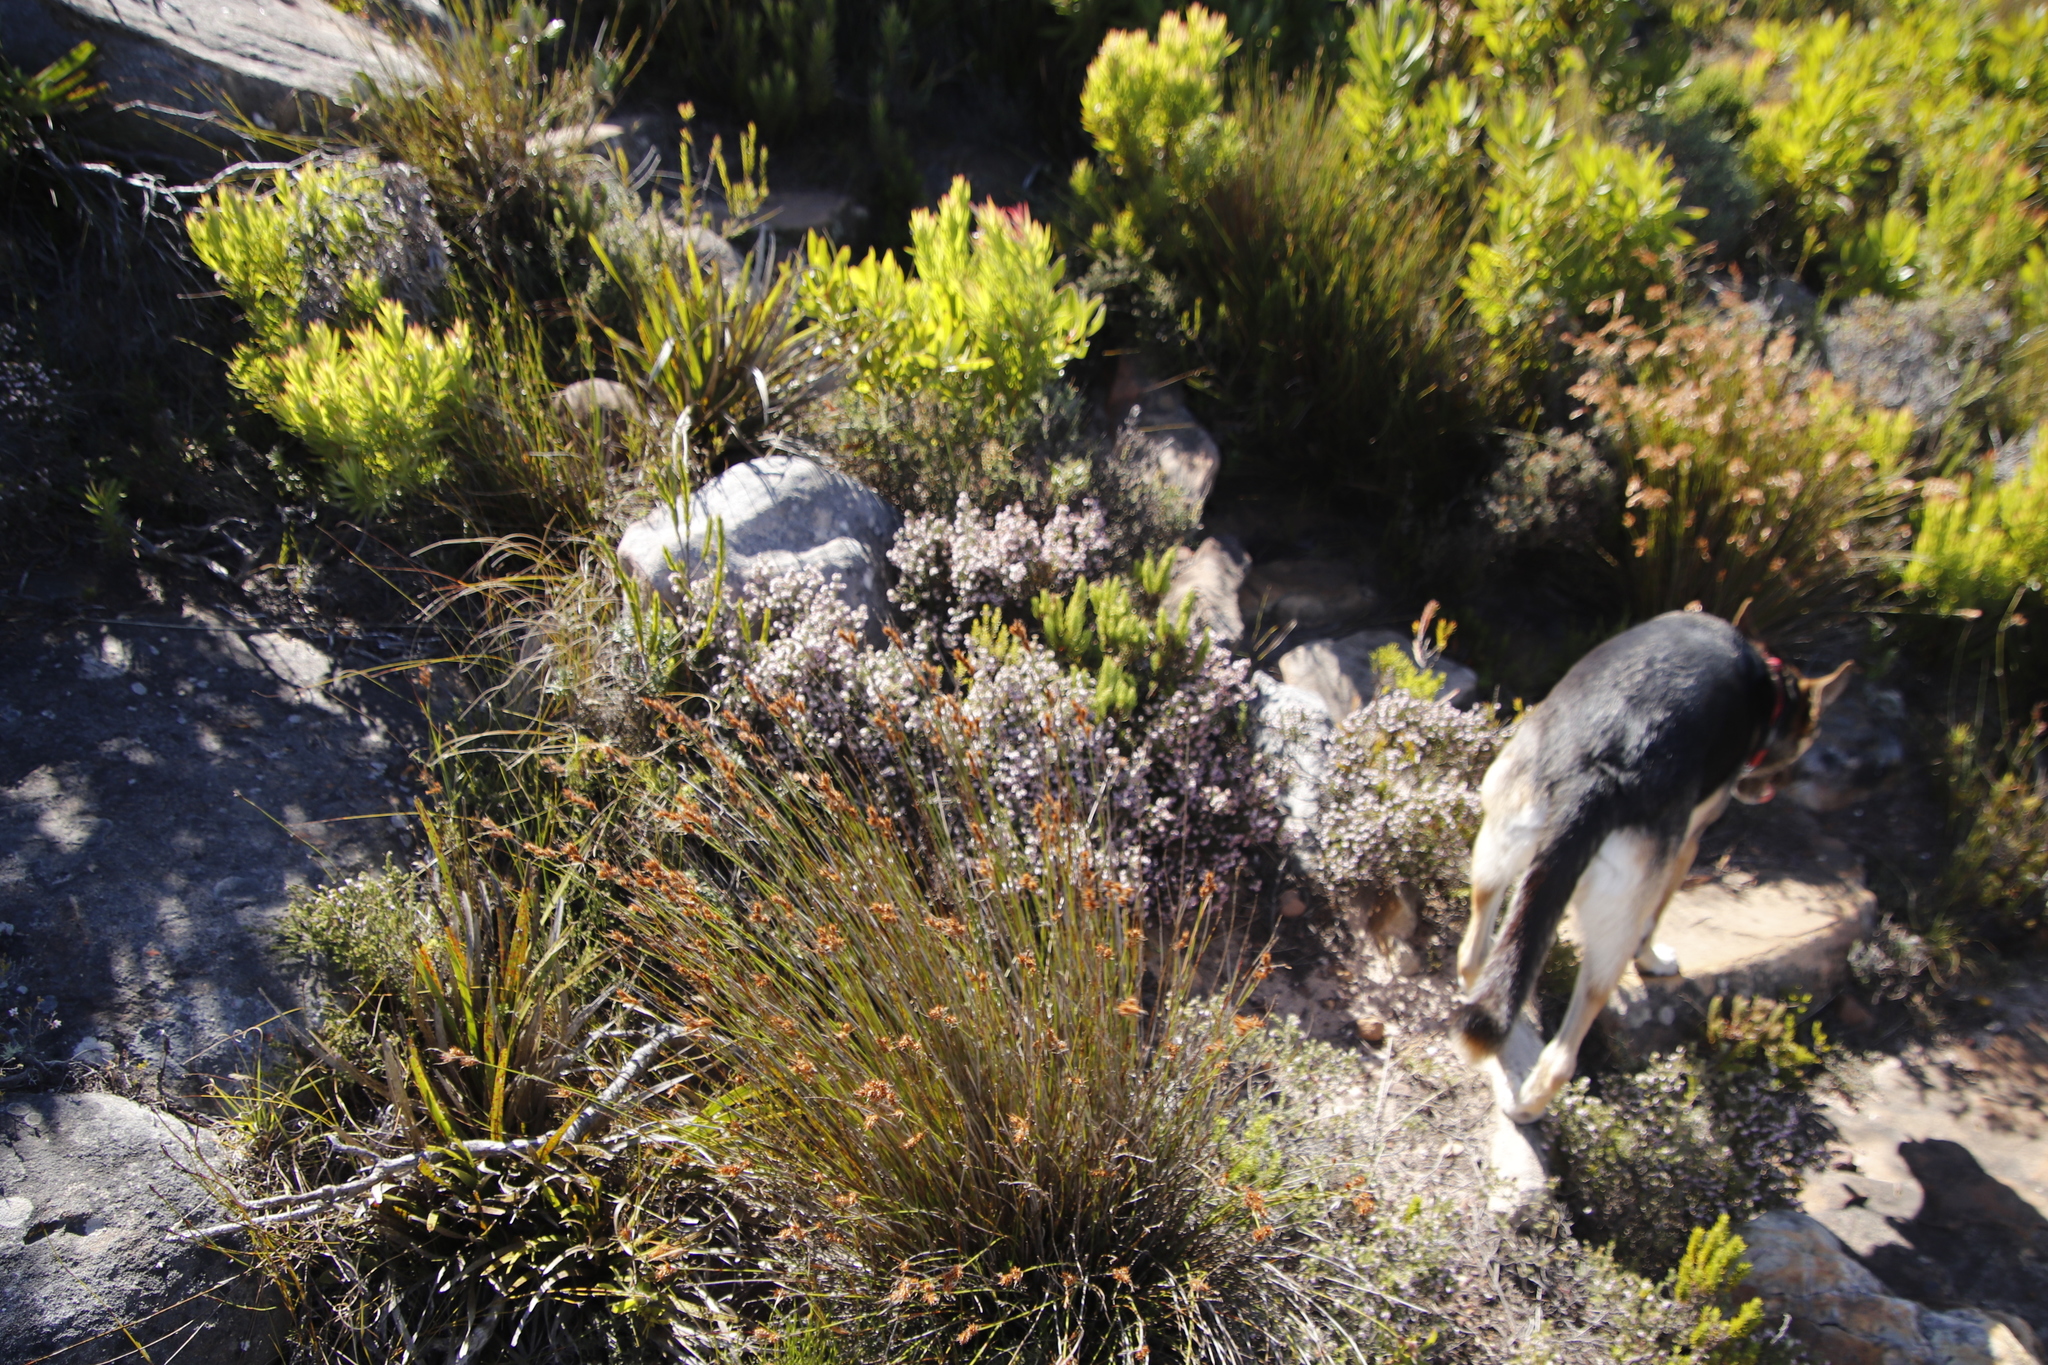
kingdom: Plantae
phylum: Tracheophyta
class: Magnoliopsida
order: Ericales
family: Ericaceae
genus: Erica
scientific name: Erica ericoides
